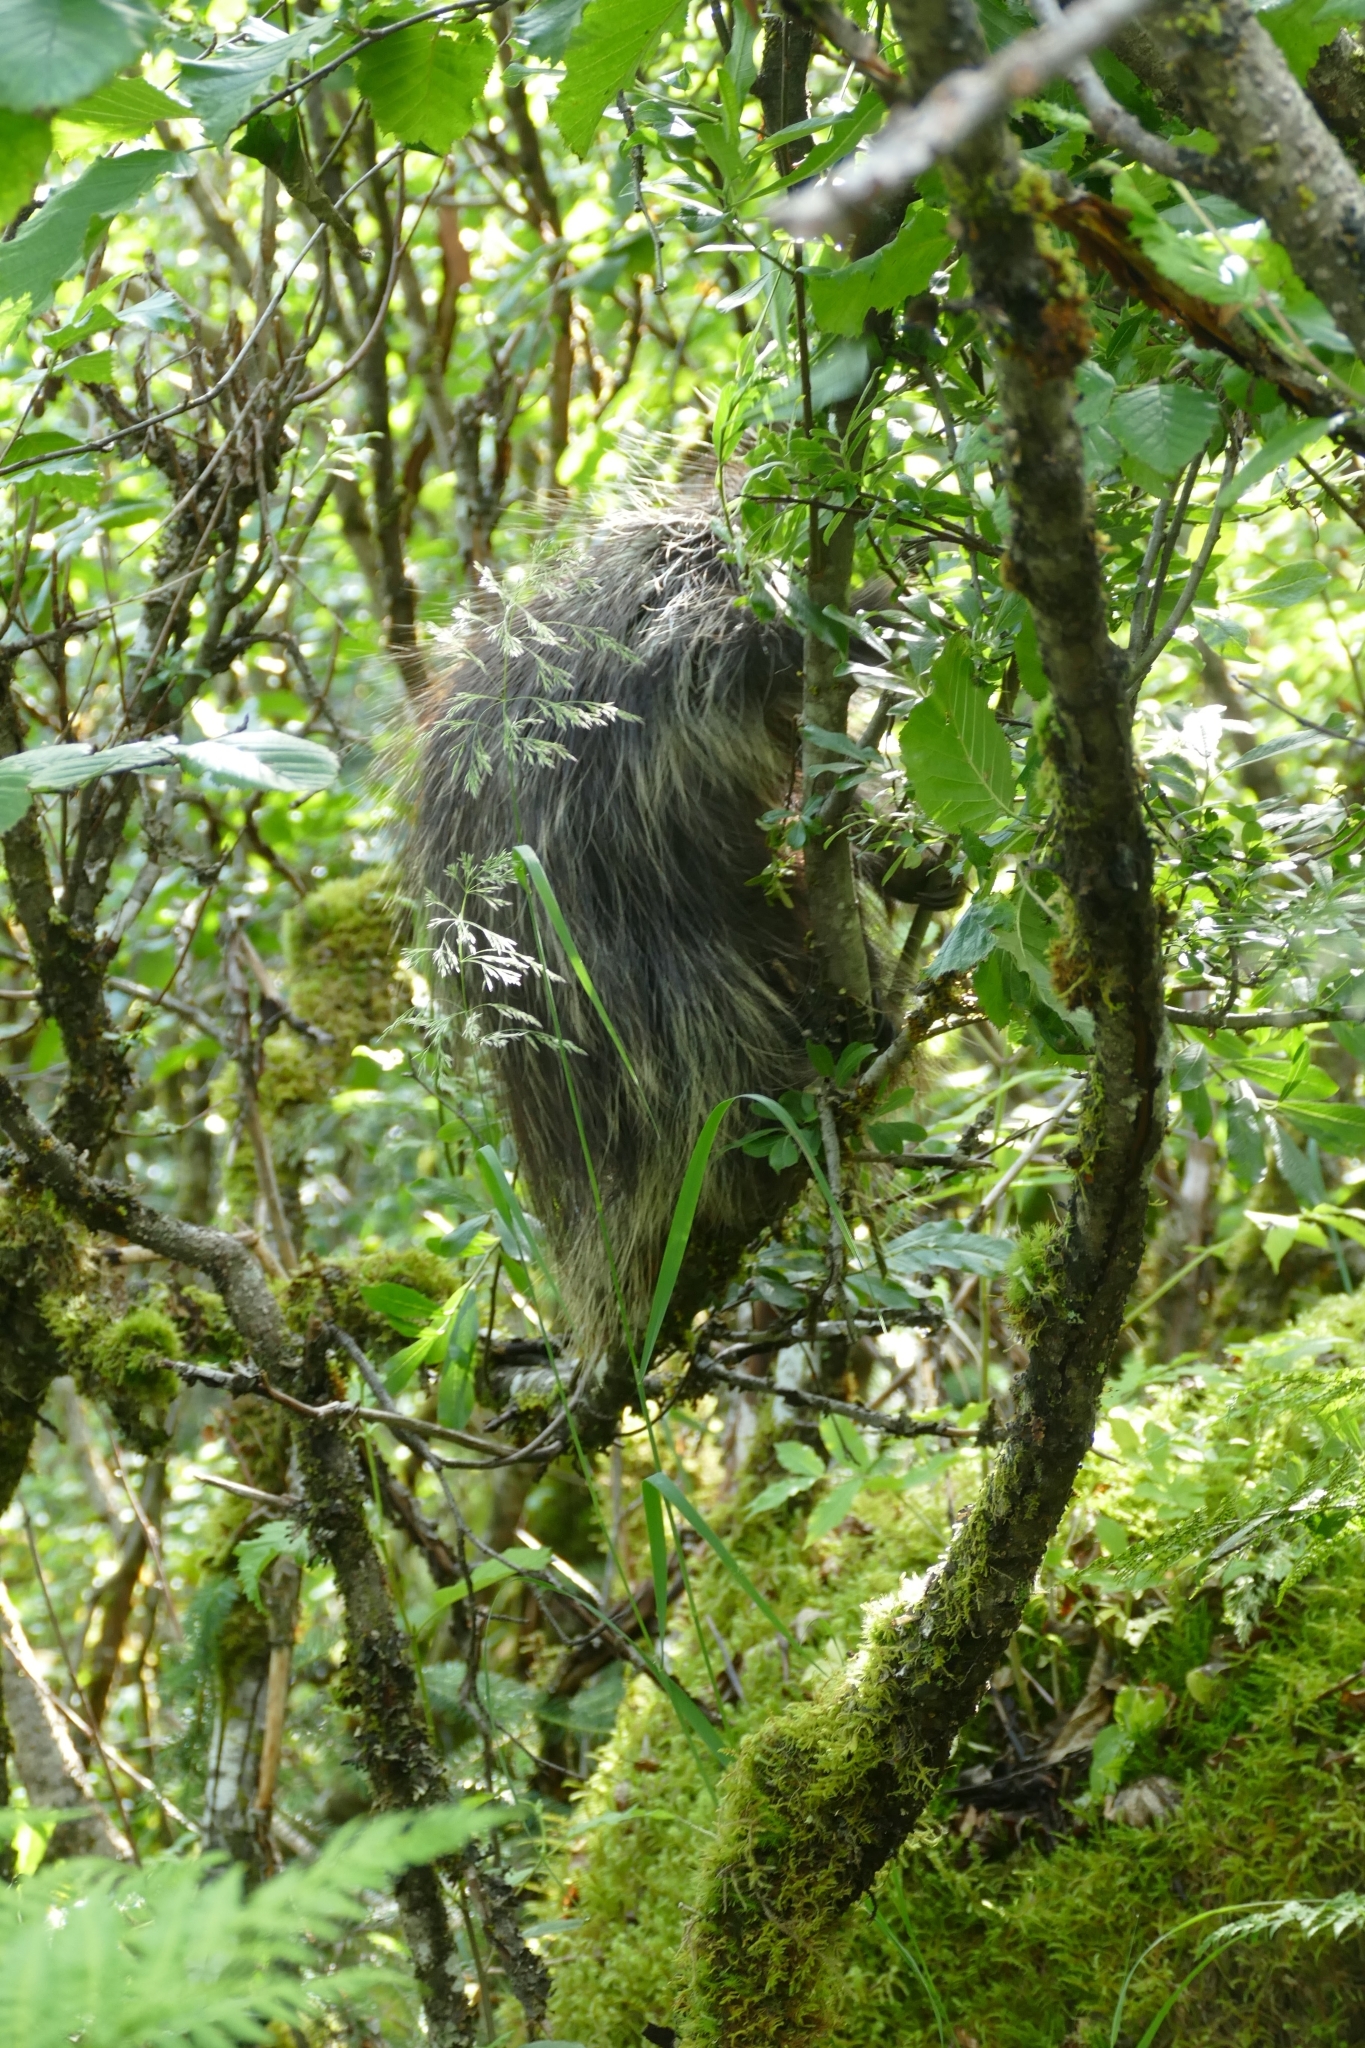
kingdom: Animalia
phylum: Chordata
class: Mammalia
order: Rodentia
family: Erethizontidae
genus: Erethizon
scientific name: Erethizon dorsatus
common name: North american porcupine
